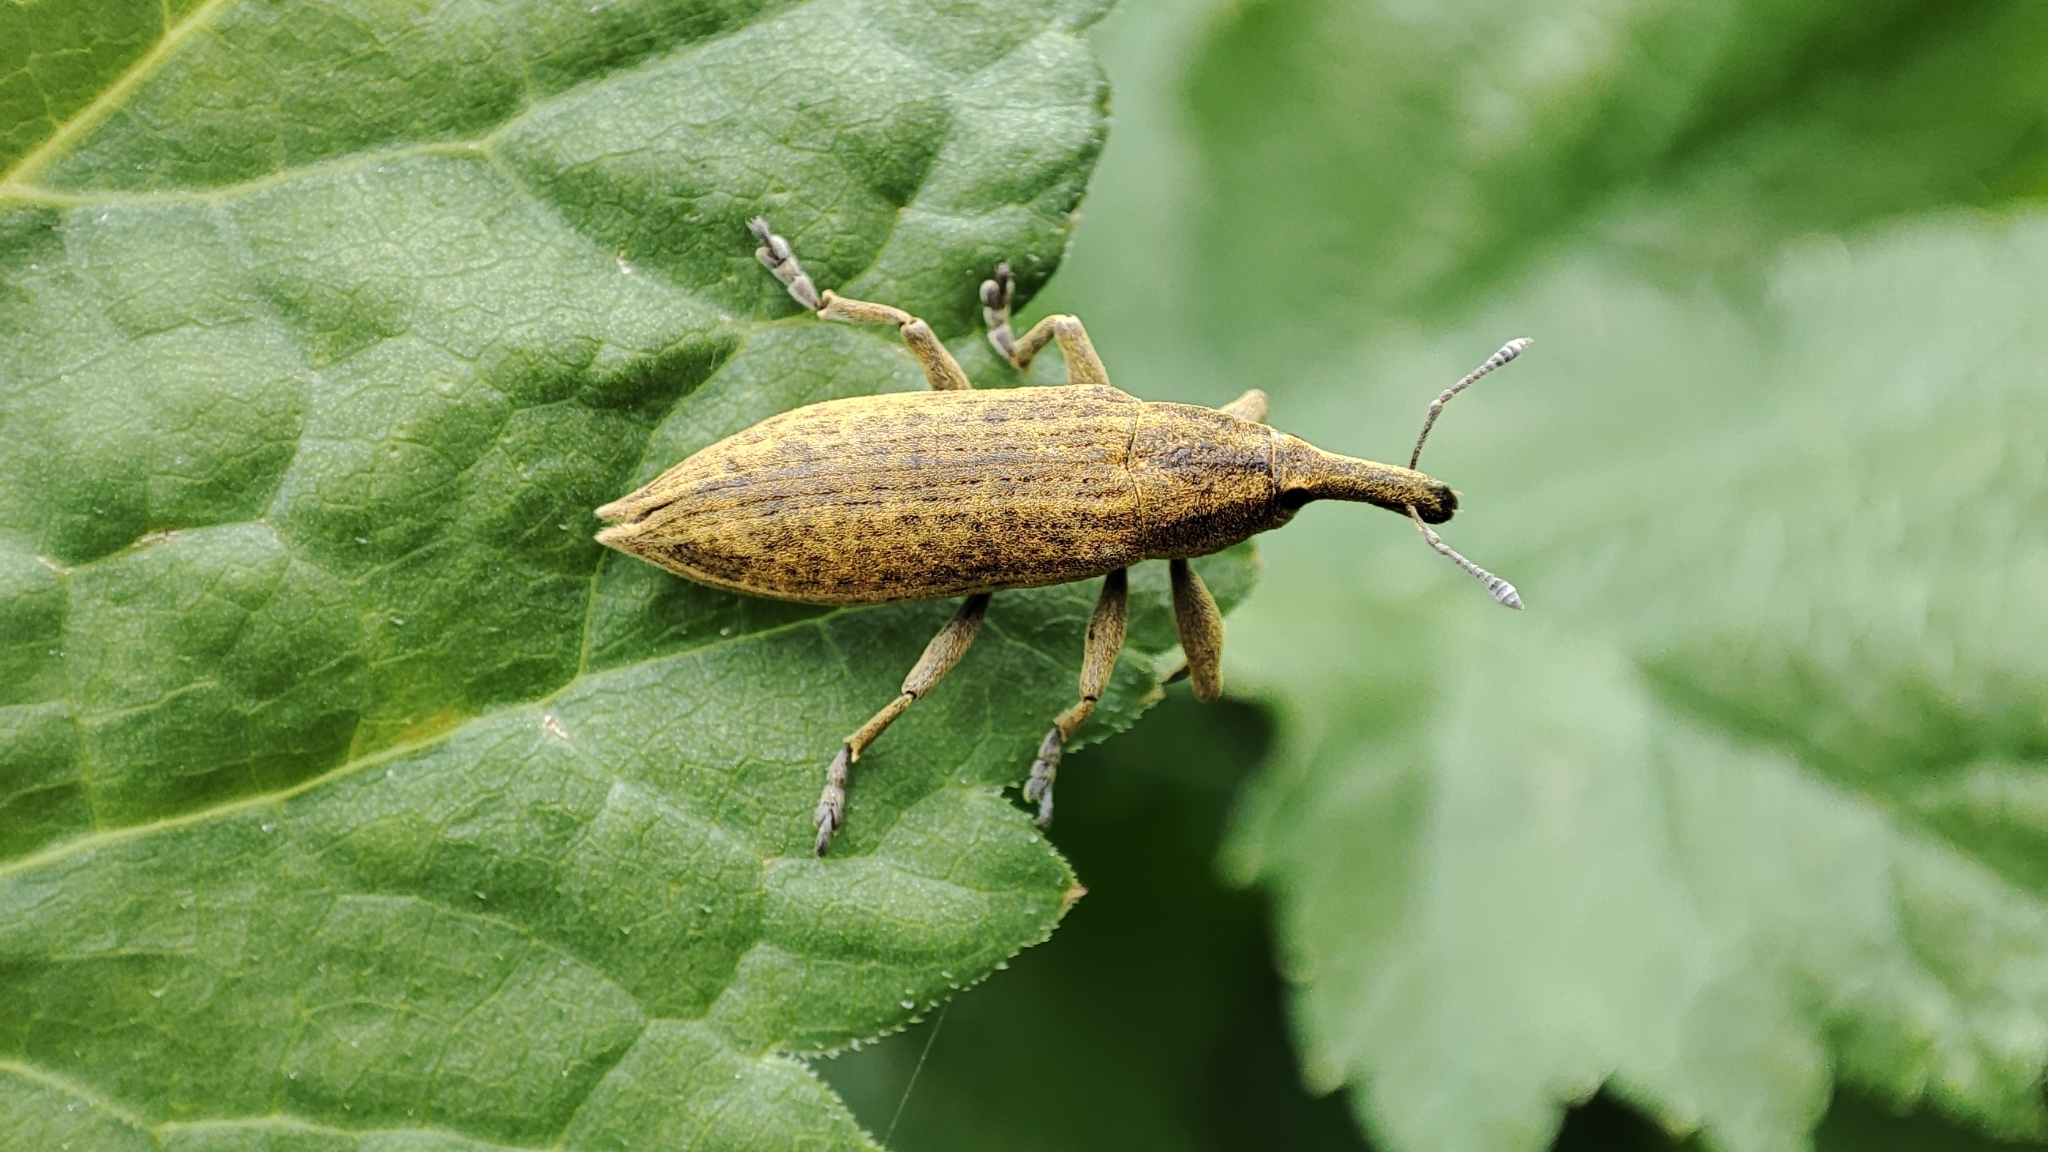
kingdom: Animalia
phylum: Arthropoda
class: Insecta
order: Coleoptera
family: Curculionidae
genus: Lixus
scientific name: Lixus iridis
